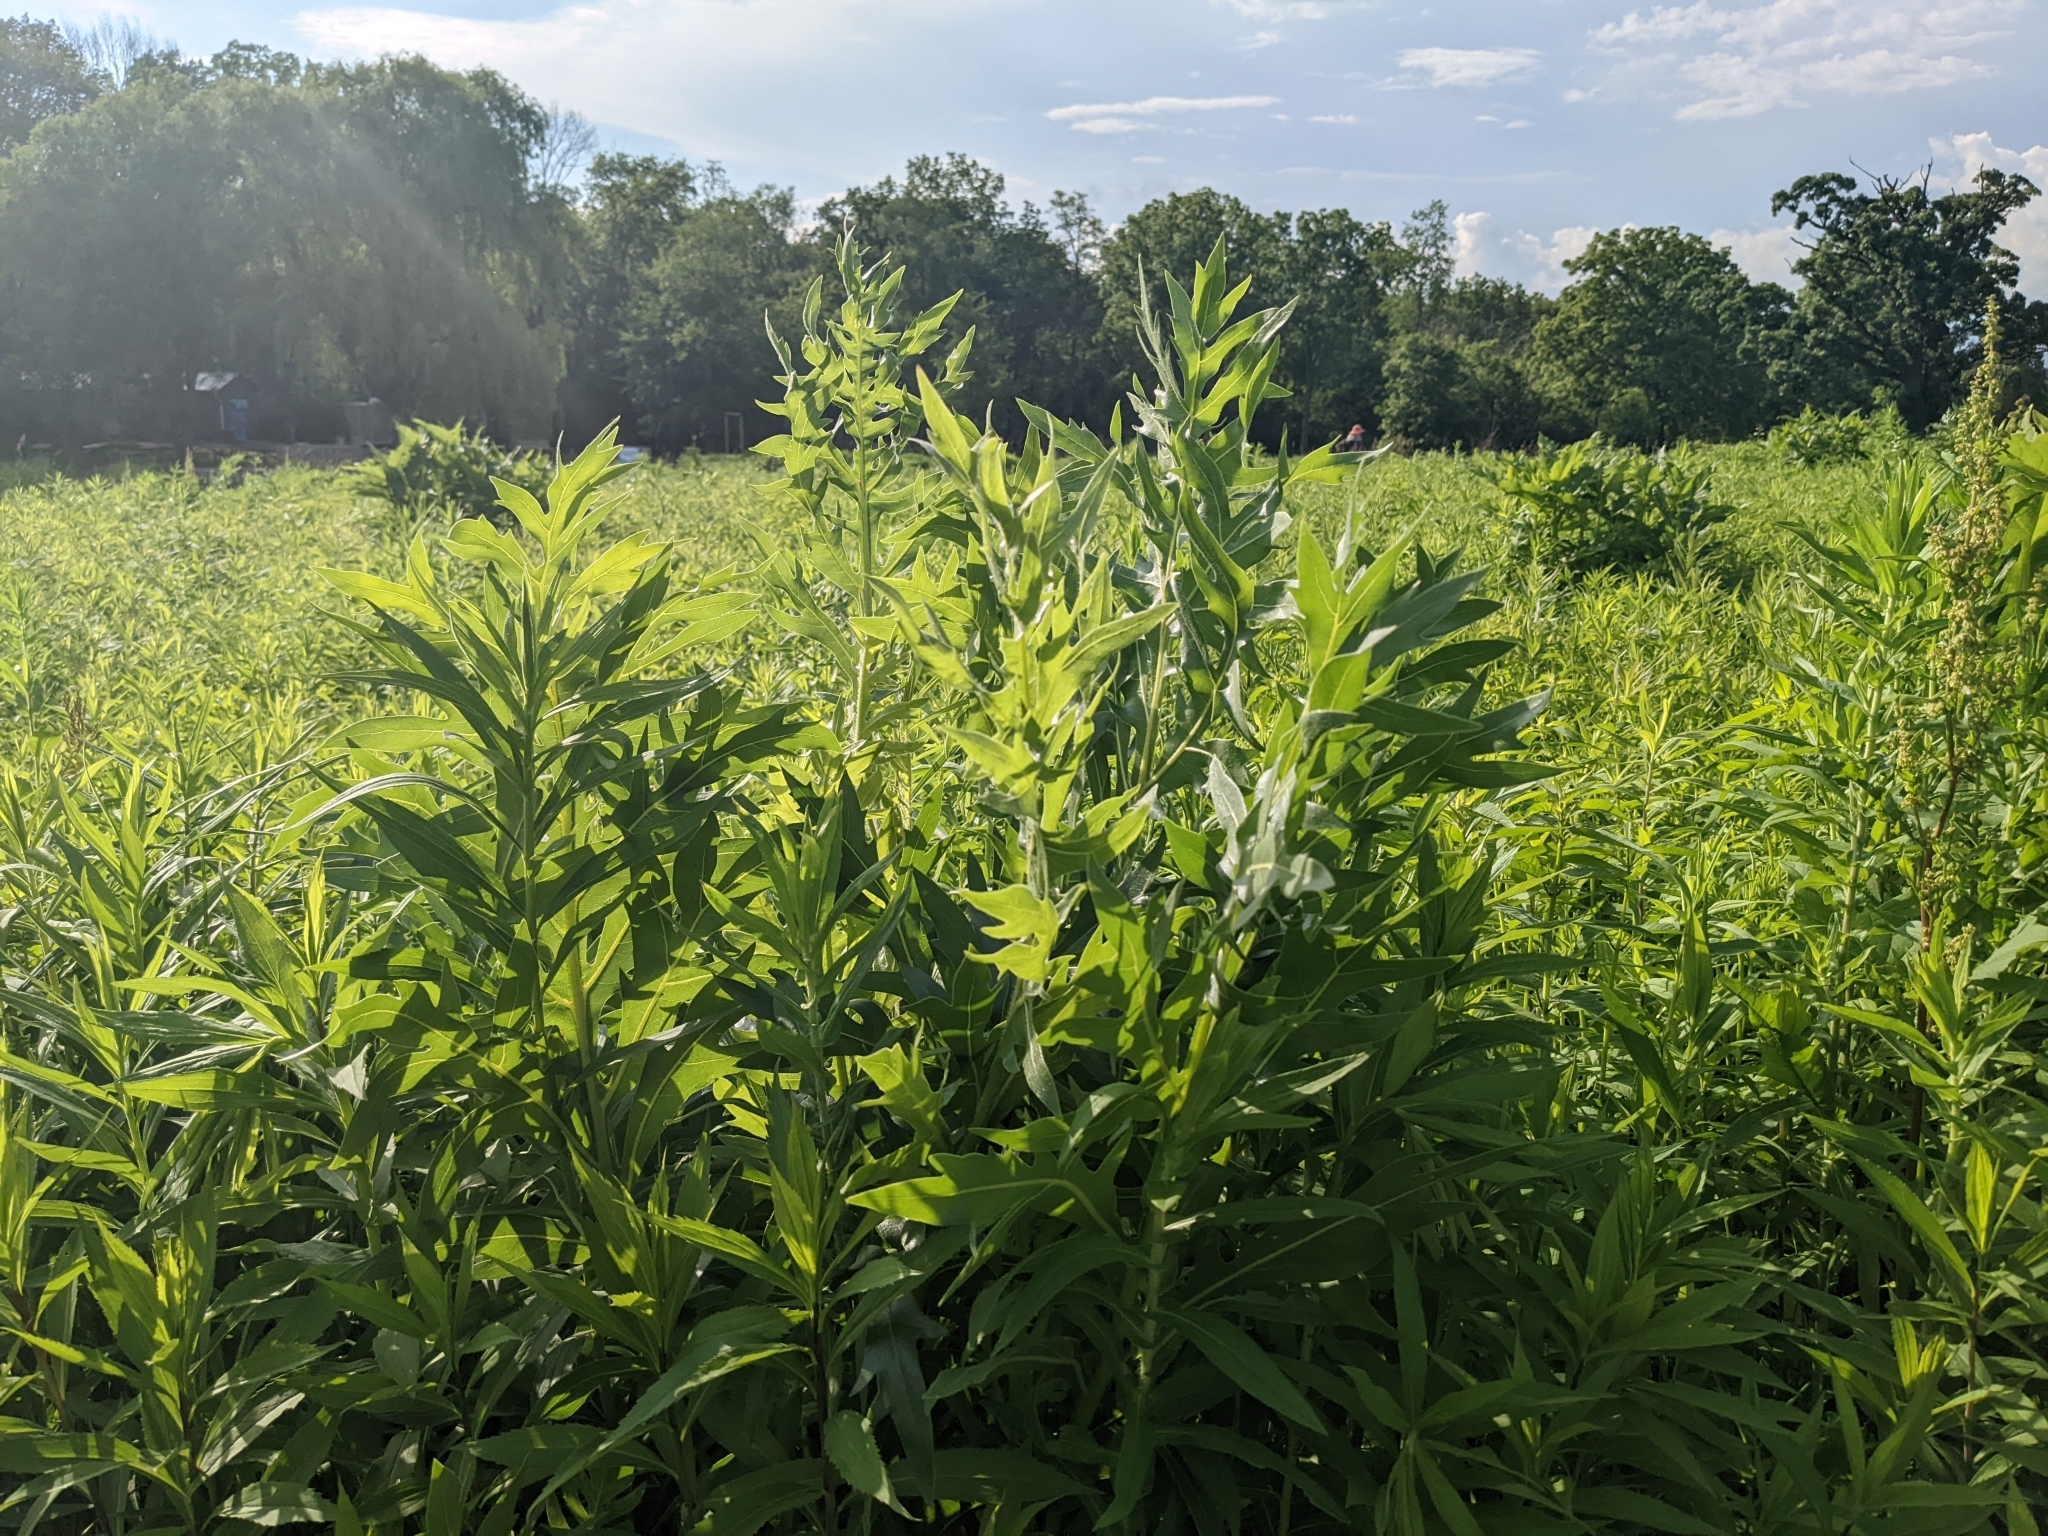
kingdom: Plantae
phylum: Tracheophyta
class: Magnoliopsida
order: Asterales
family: Asteraceae
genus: Silphium
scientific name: Silphium laciniatum
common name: Polarplant
